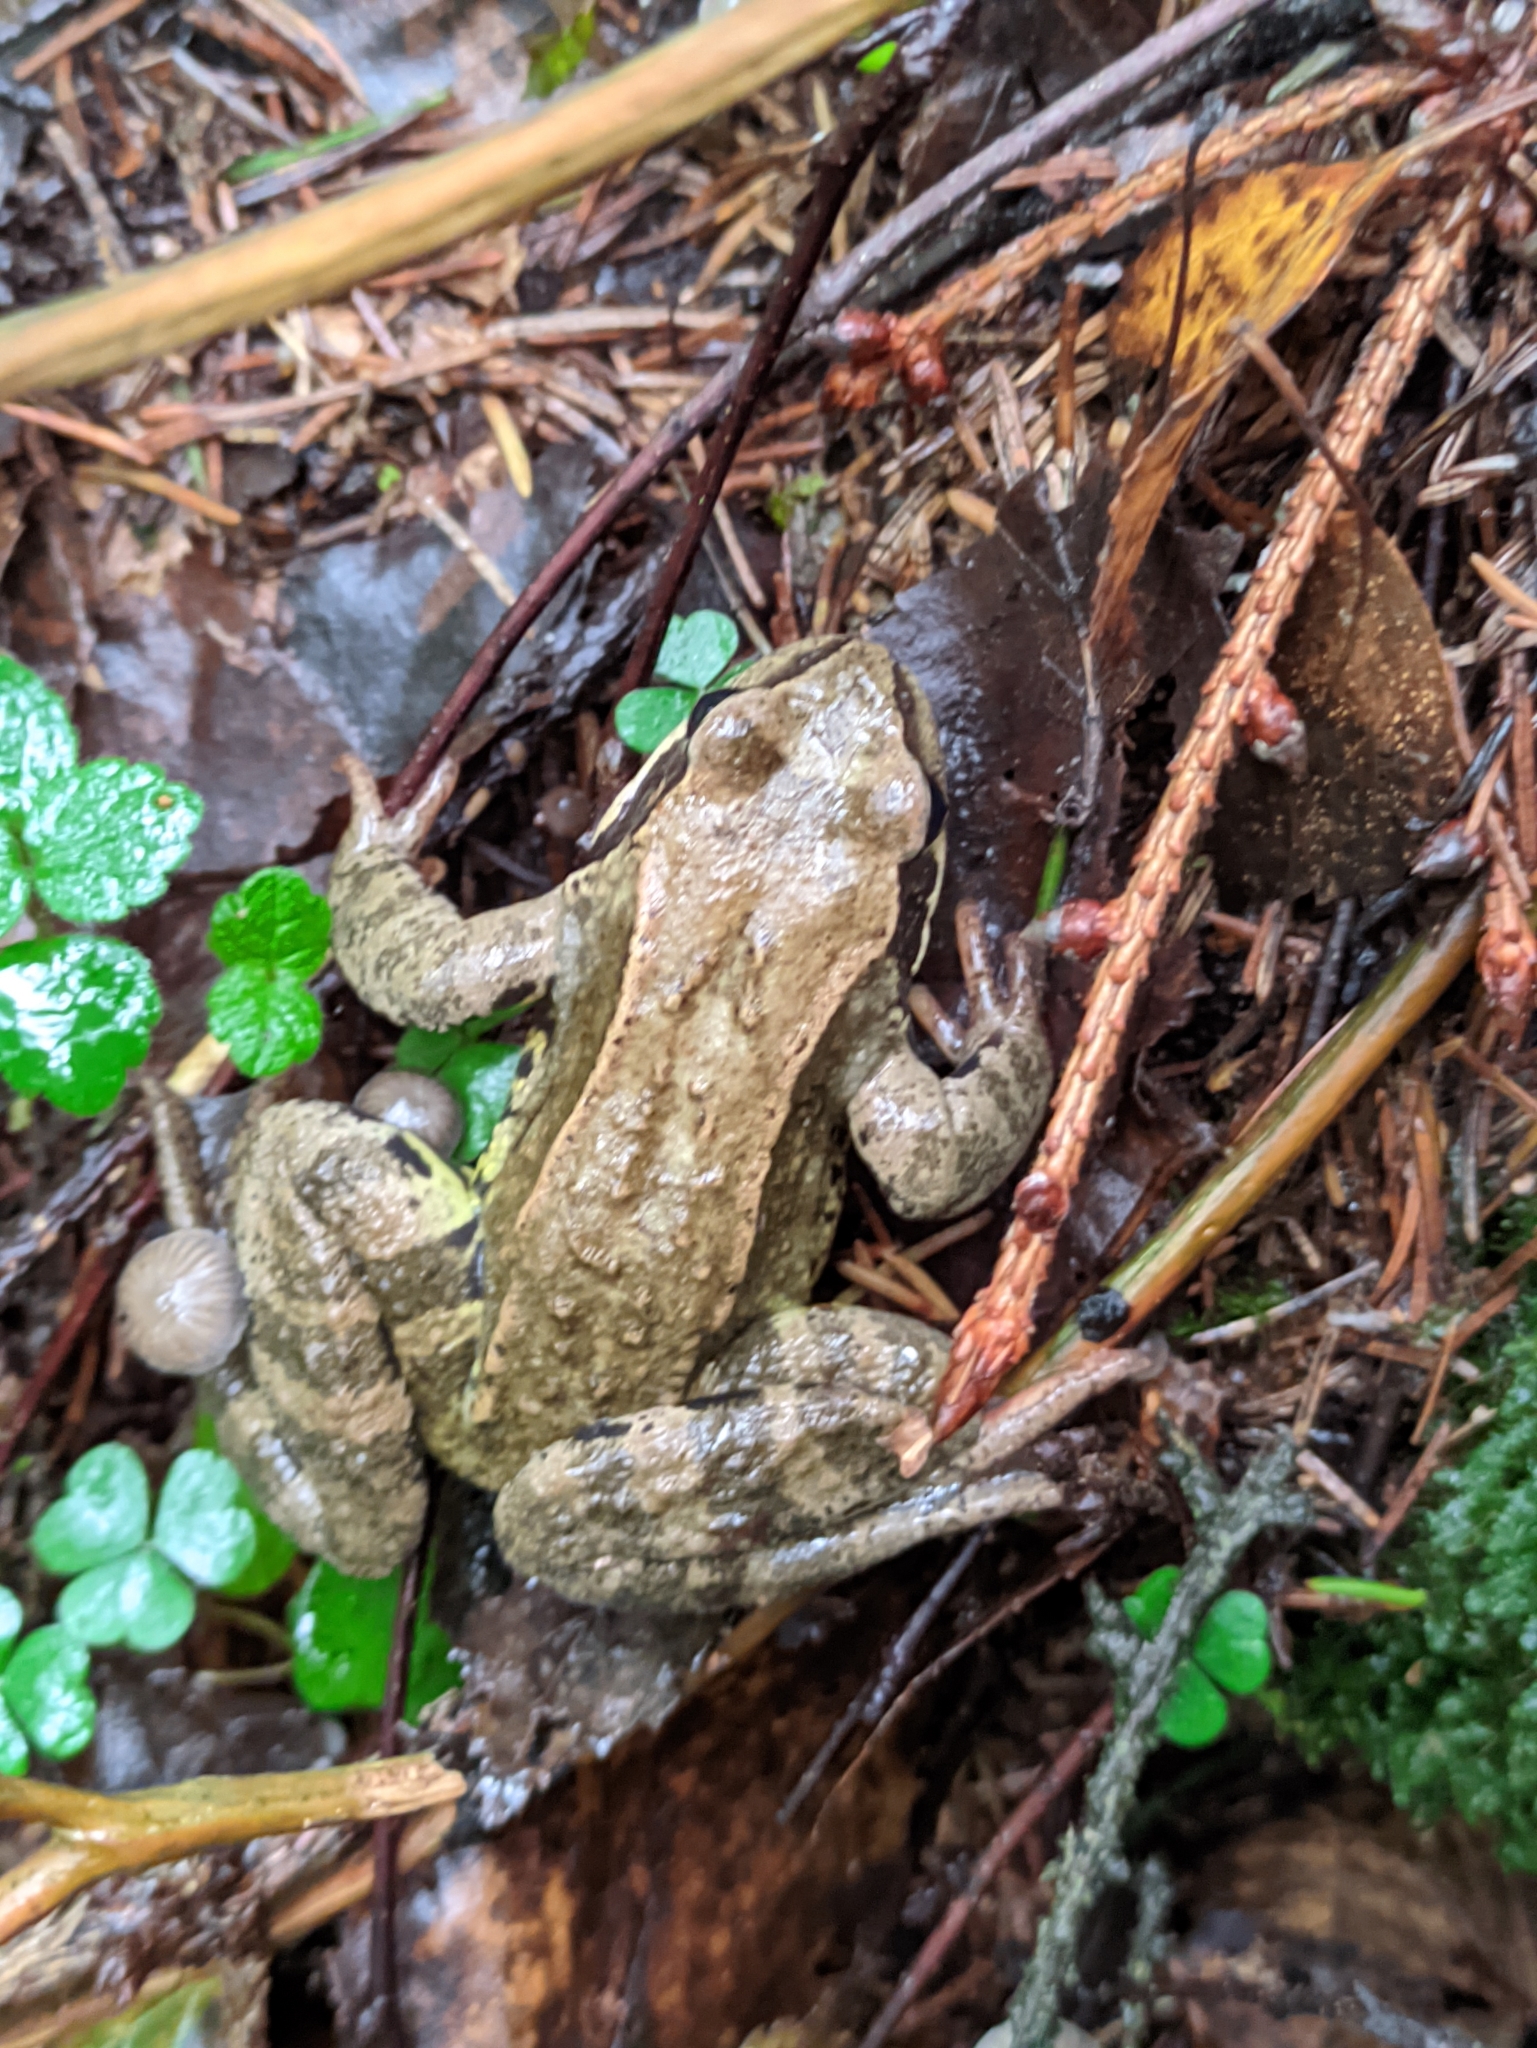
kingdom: Animalia
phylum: Chordata
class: Amphibia
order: Anura
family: Ranidae
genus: Rana
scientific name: Rana temporaria
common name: Common frog
